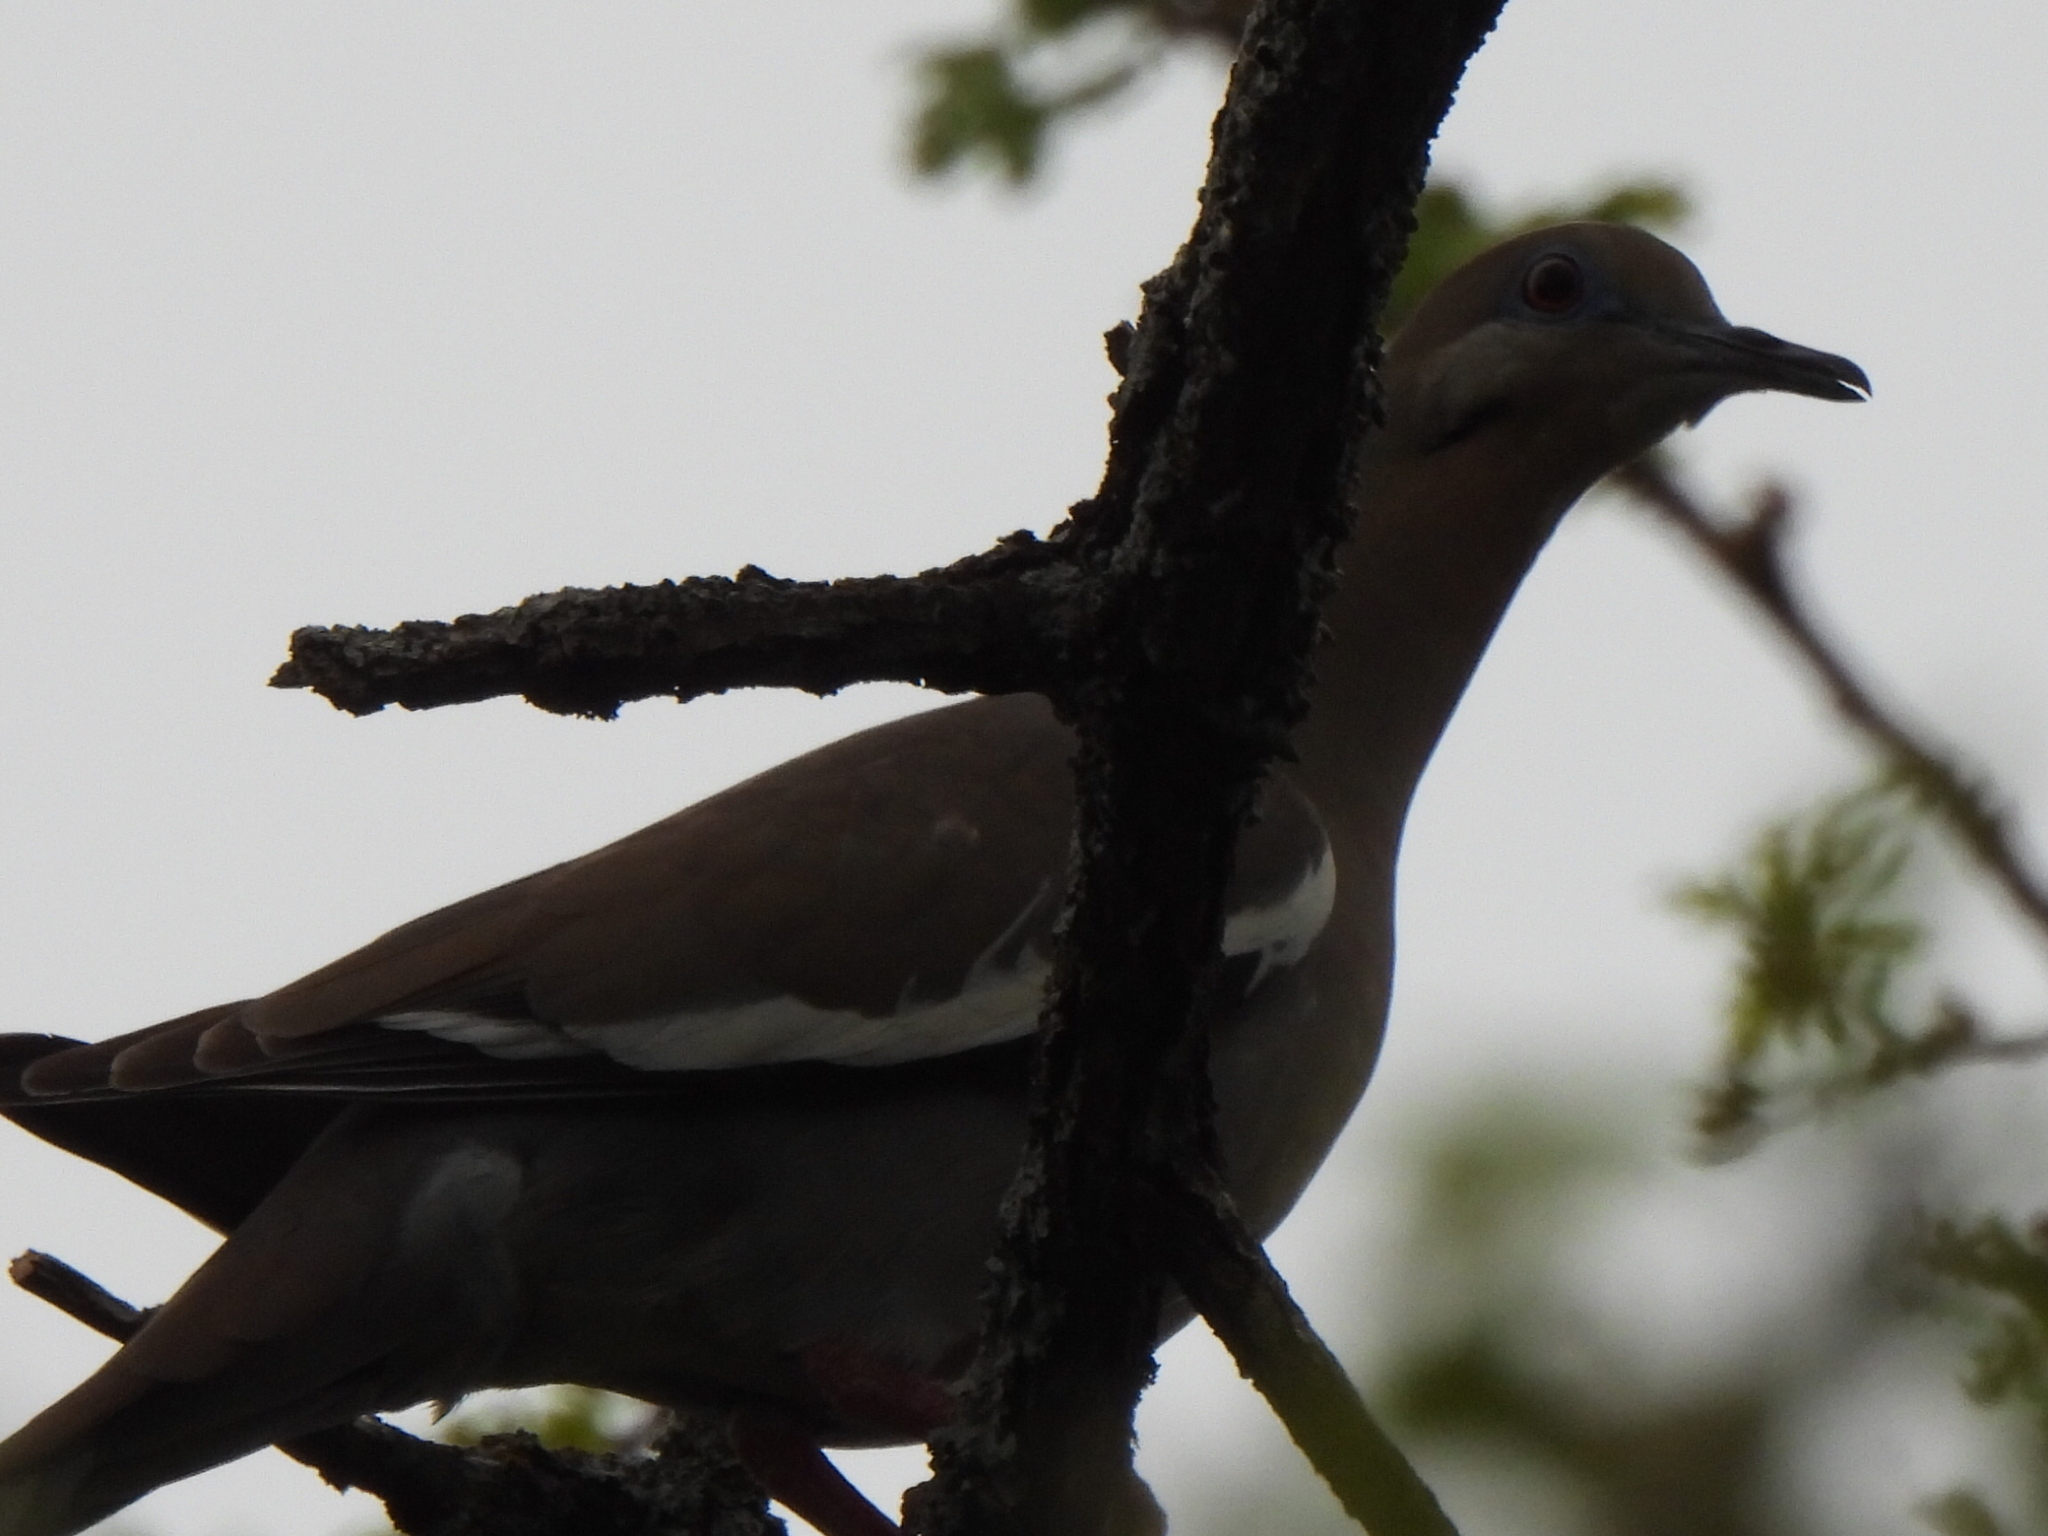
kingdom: Animalia
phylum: Chordata
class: Aves
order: Columbiformes
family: Columbidae
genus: Zenaida
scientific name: Zenaida asiatica
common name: White-winged dove
